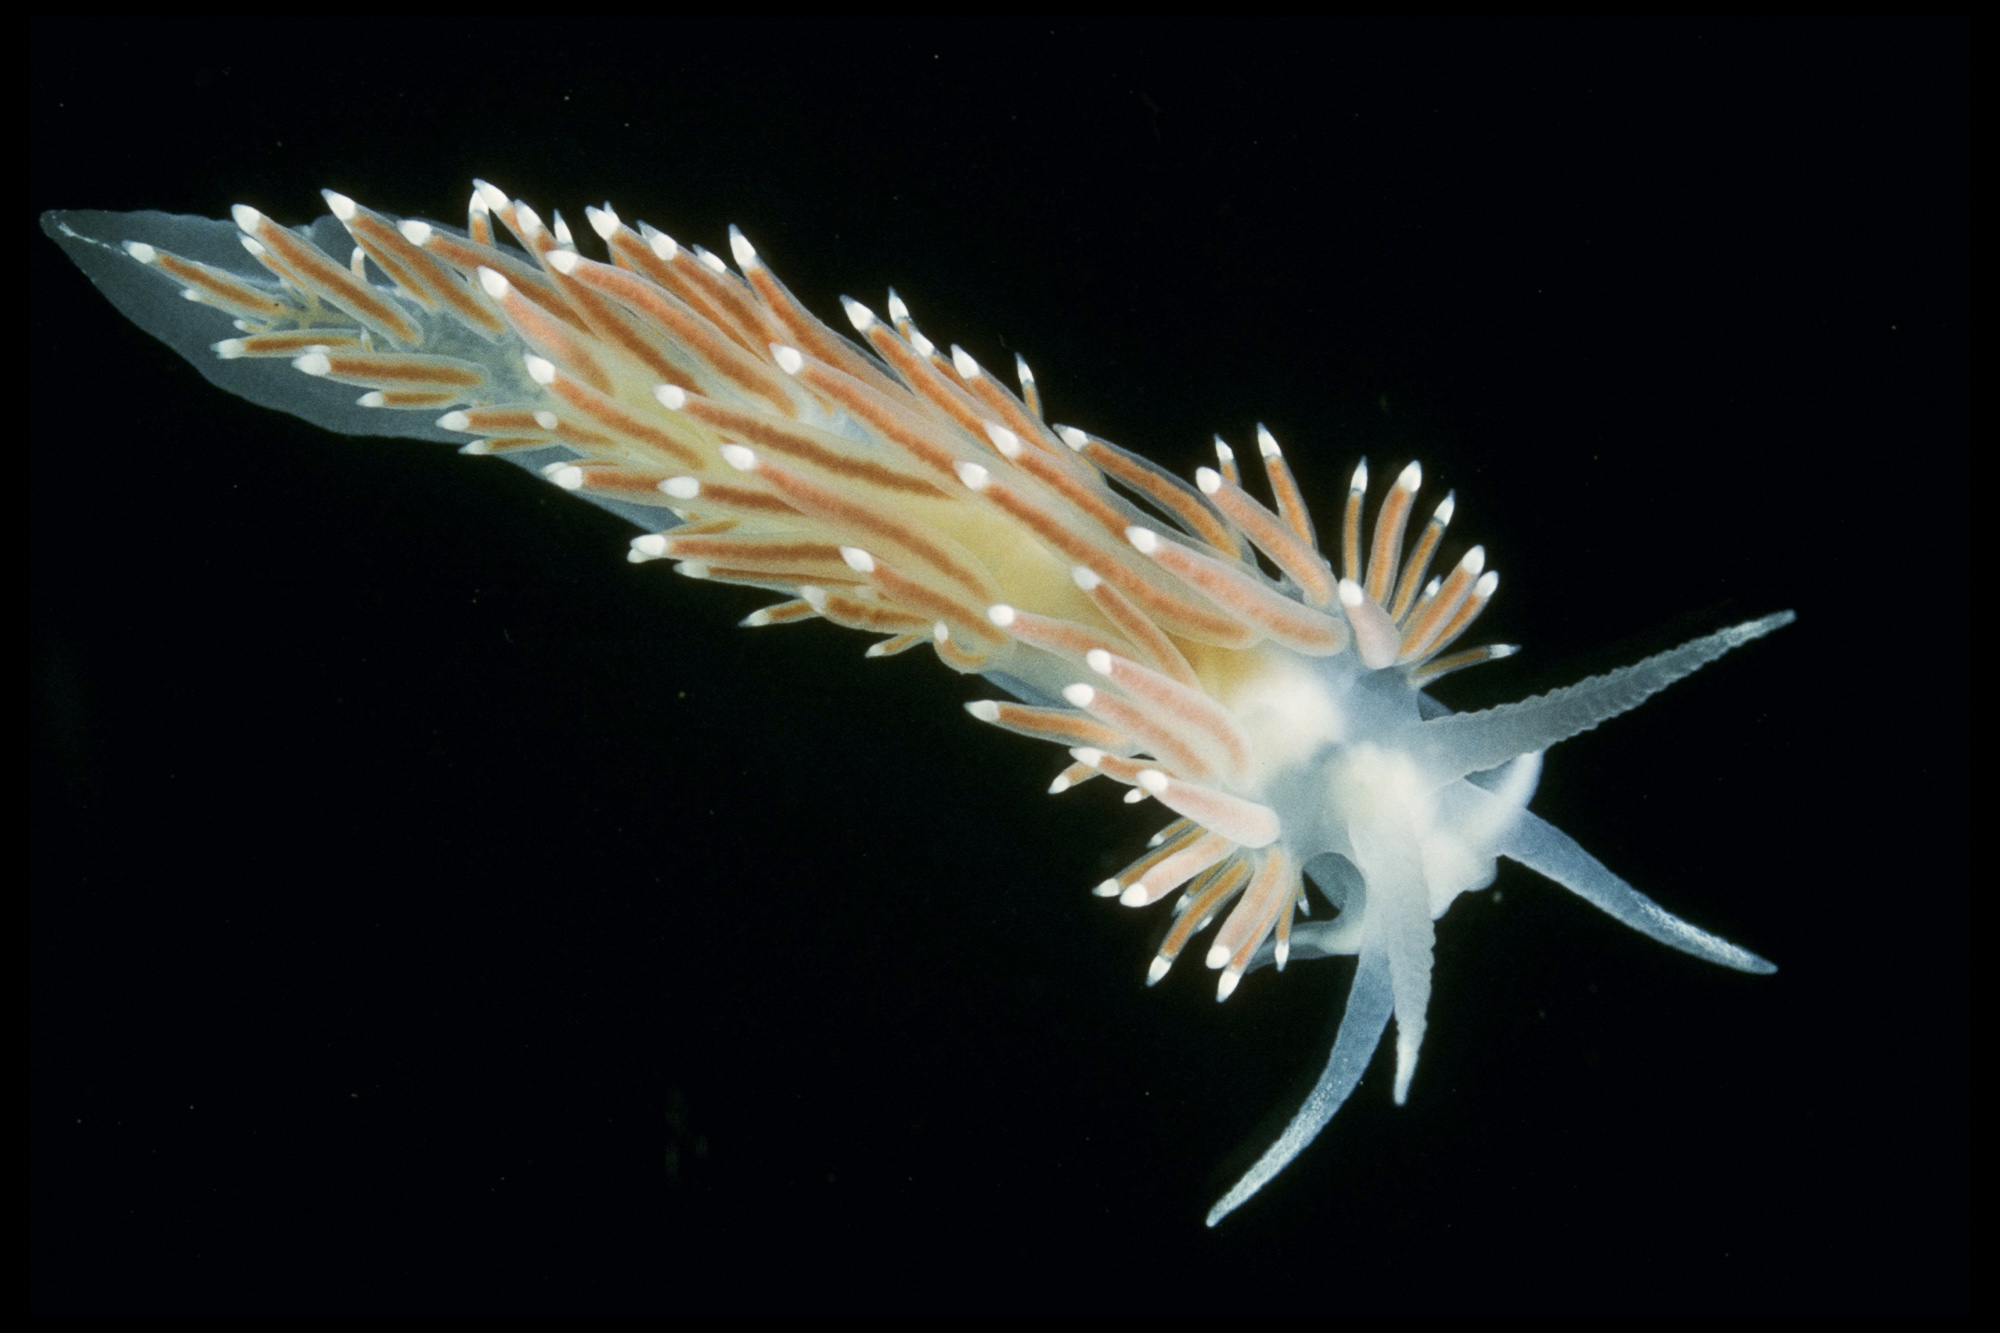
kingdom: Animalia
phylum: Mollusca
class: Gastropoda
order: Nudibranchia
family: Coryphellidae
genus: Coryphella
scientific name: Coryphella browni
